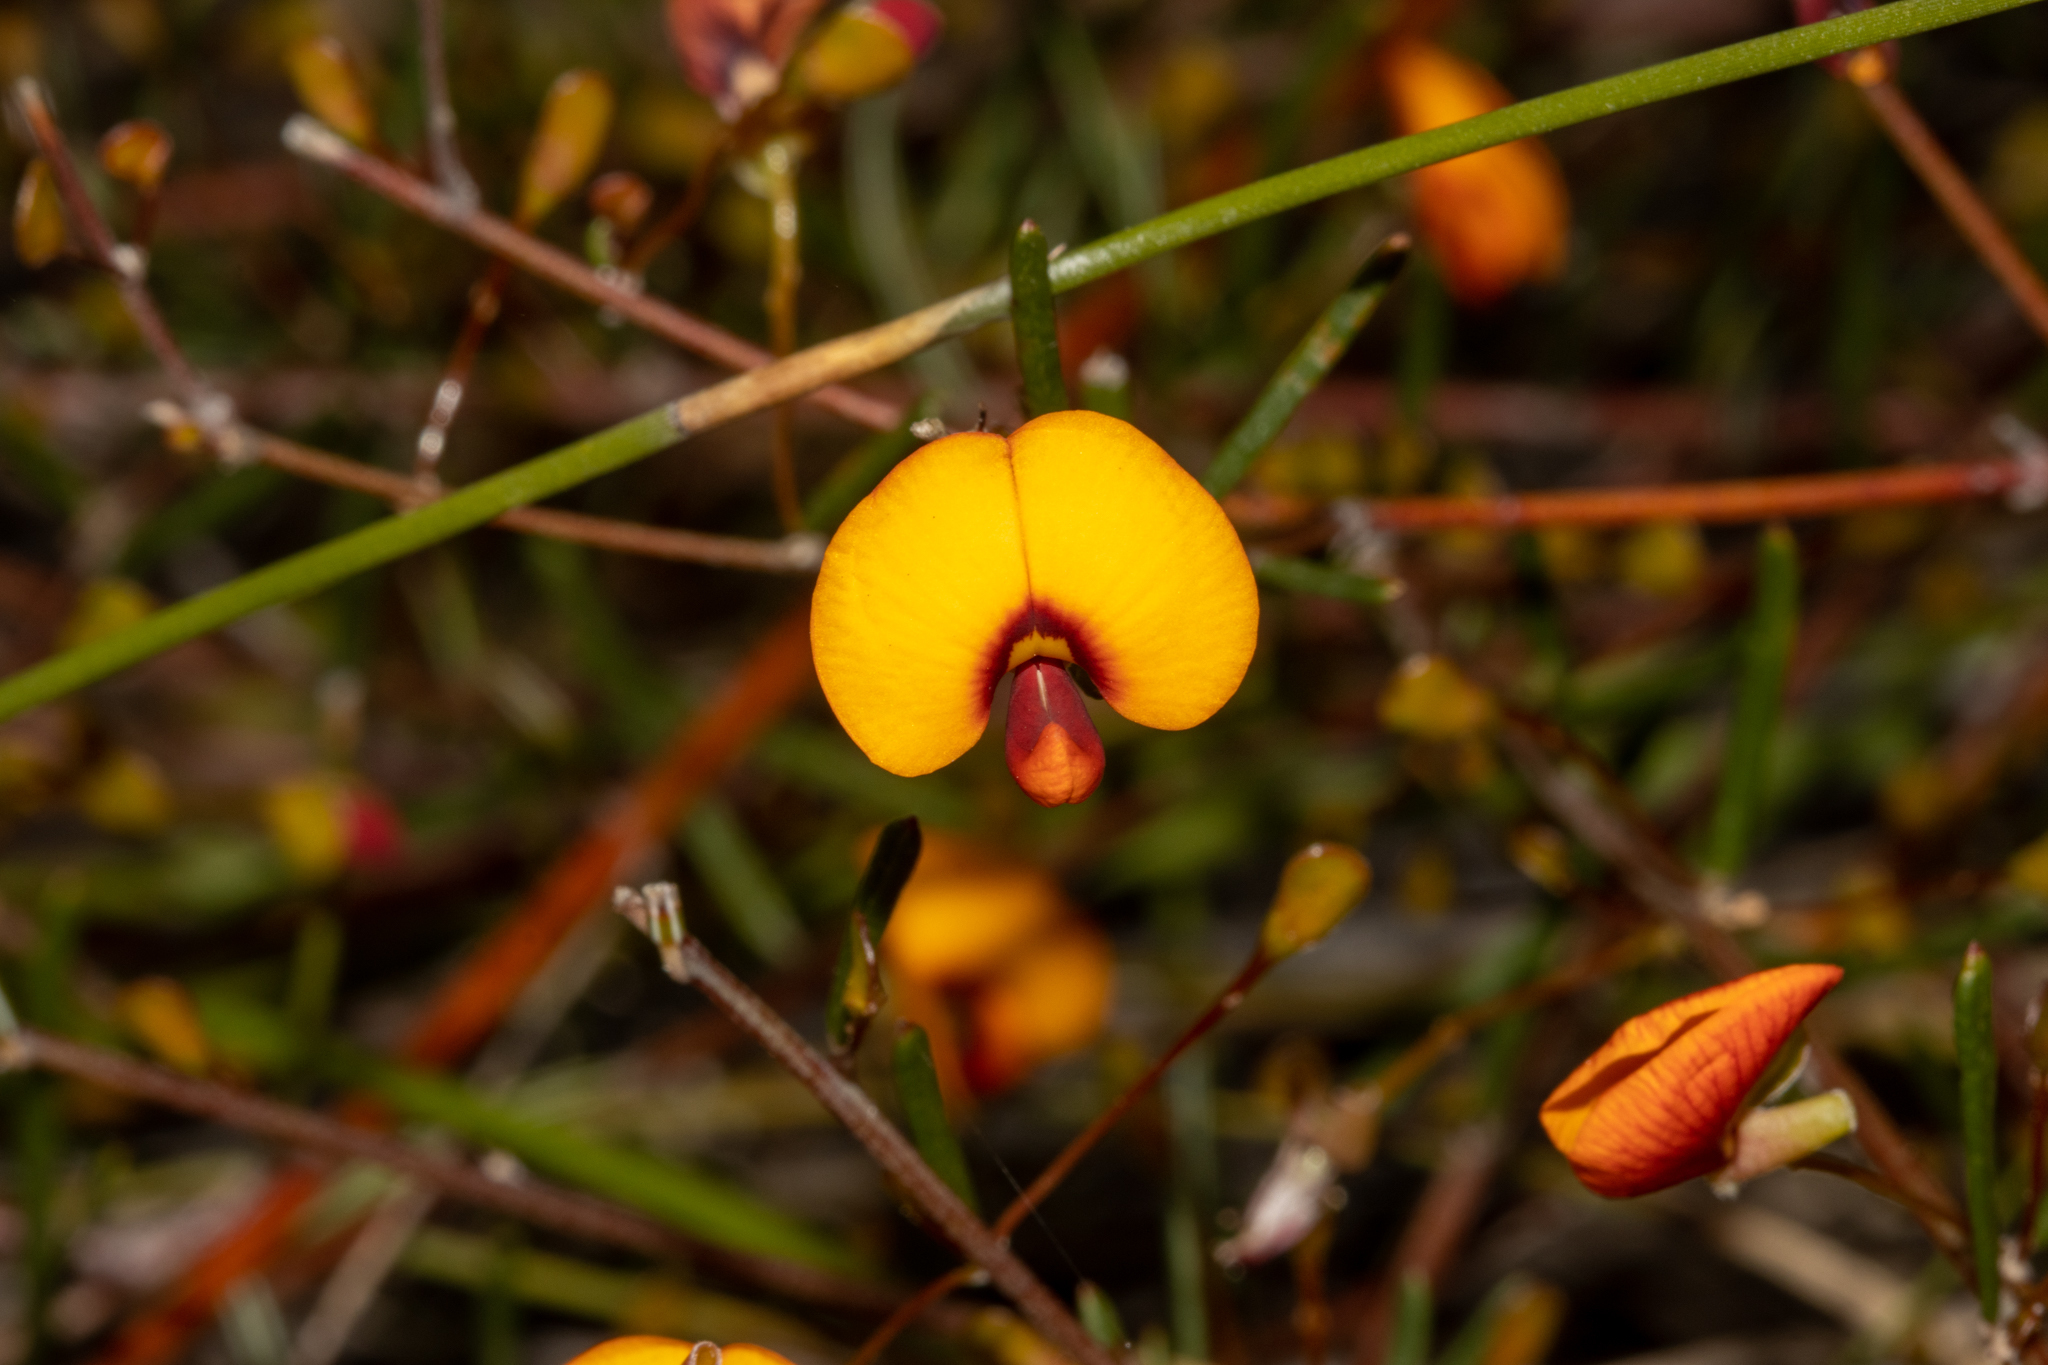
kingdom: Plantae
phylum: Tracheophyta
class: Magnoliopsida
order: Fabales
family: Fabaceae
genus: Euchilopsis
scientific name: Euchilopsis linearis
